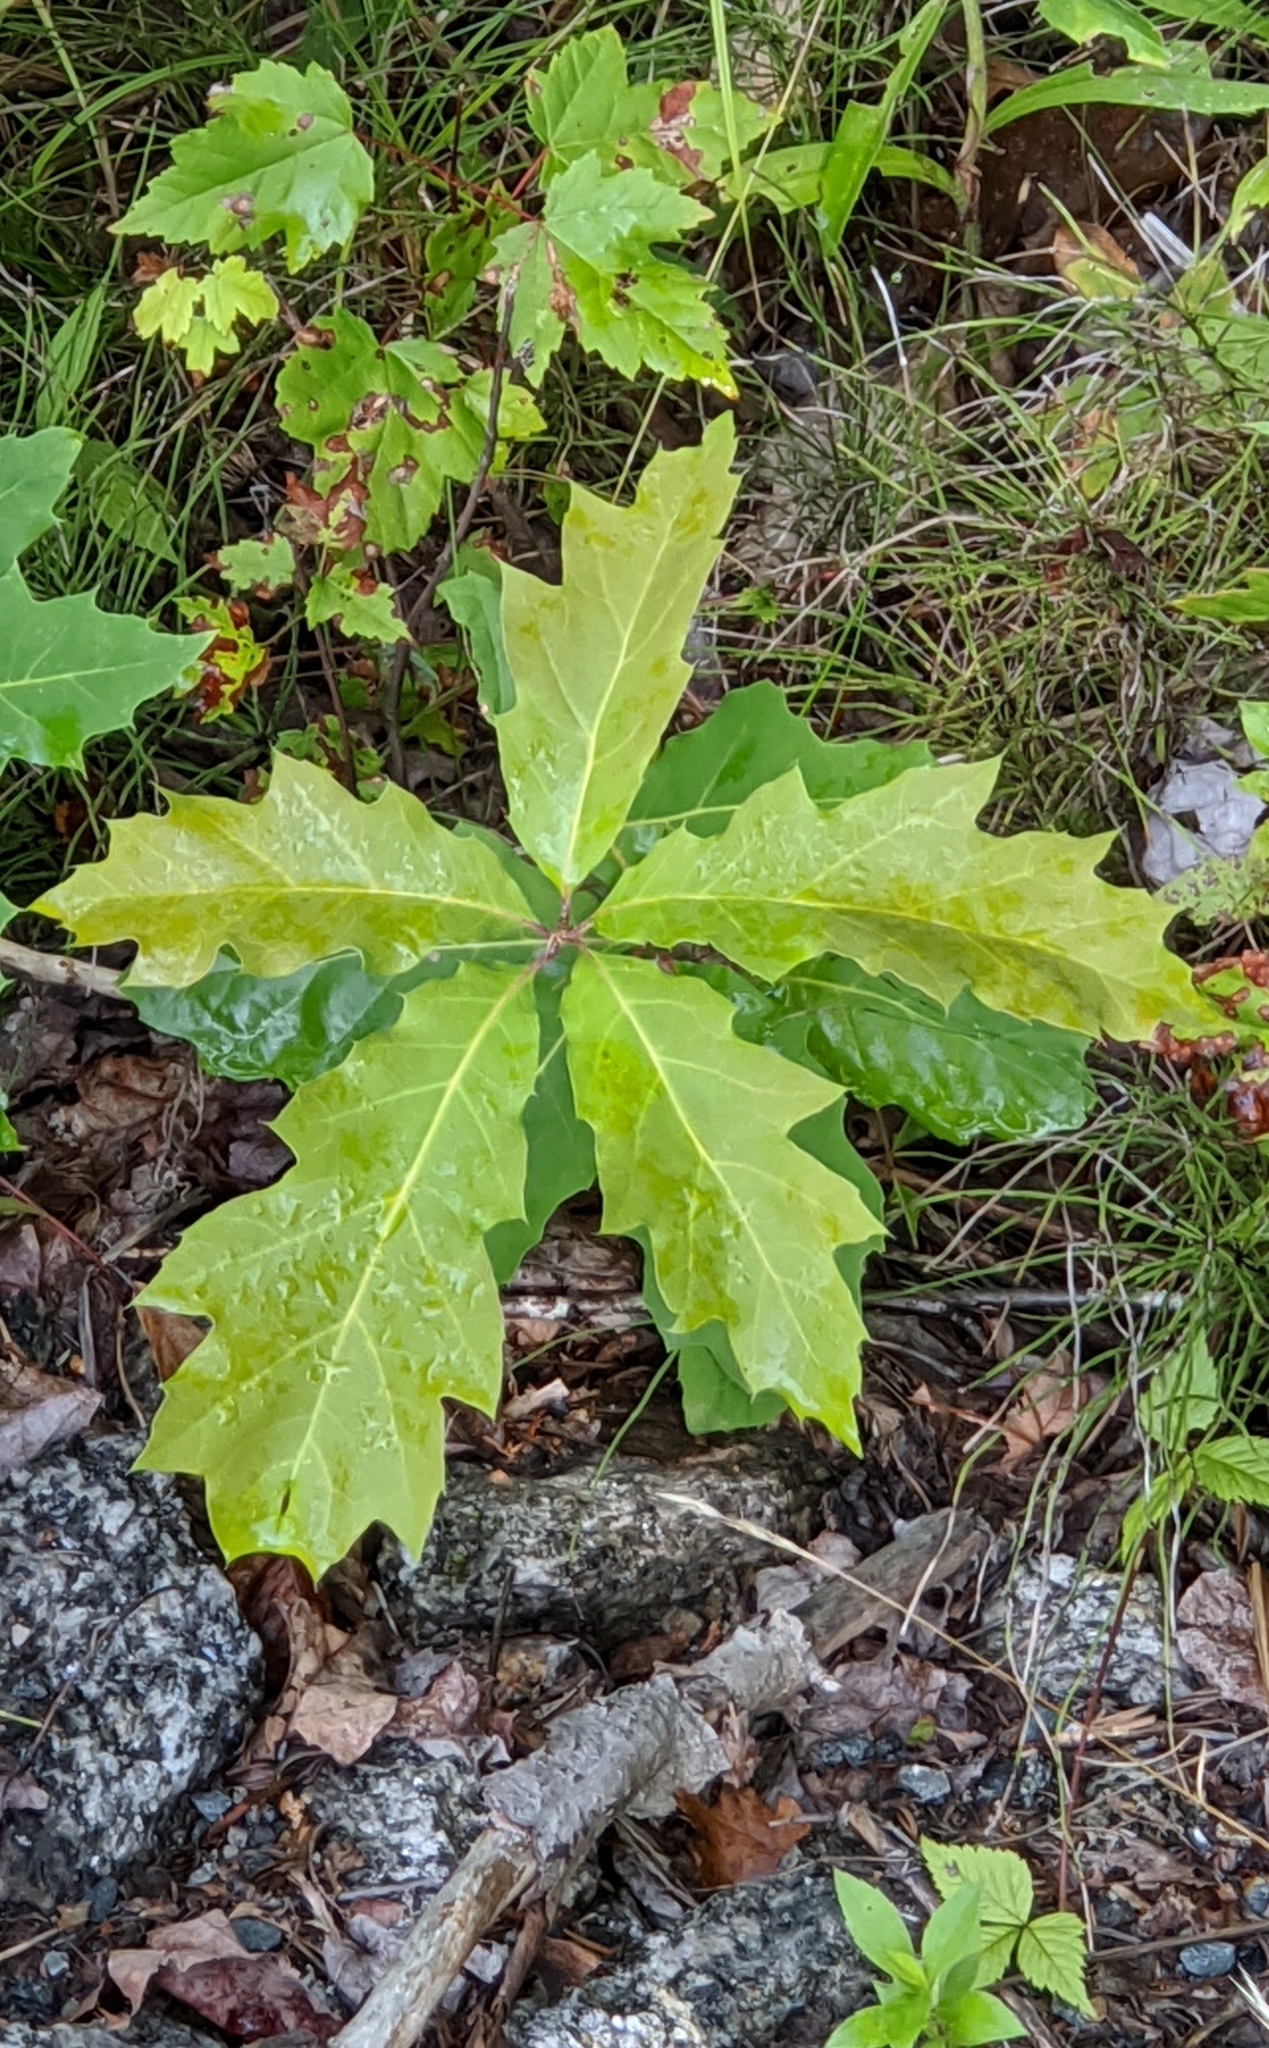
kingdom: Plantae
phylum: Tracheophyta
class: Magnoliopsida
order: Fagales
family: Fagaceae
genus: Quercus
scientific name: Quercus rubra
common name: Red oak
